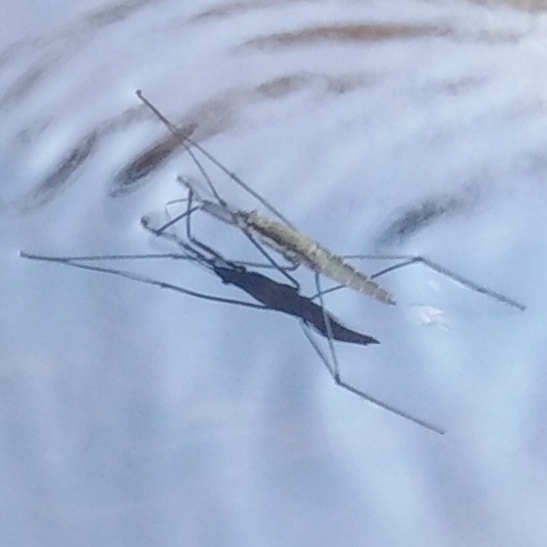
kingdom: Animalia
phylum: Arthropoda
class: Insecta
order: Hemiptera
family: Gerridae
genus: Aquarius
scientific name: Aquarius najas
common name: River skater
